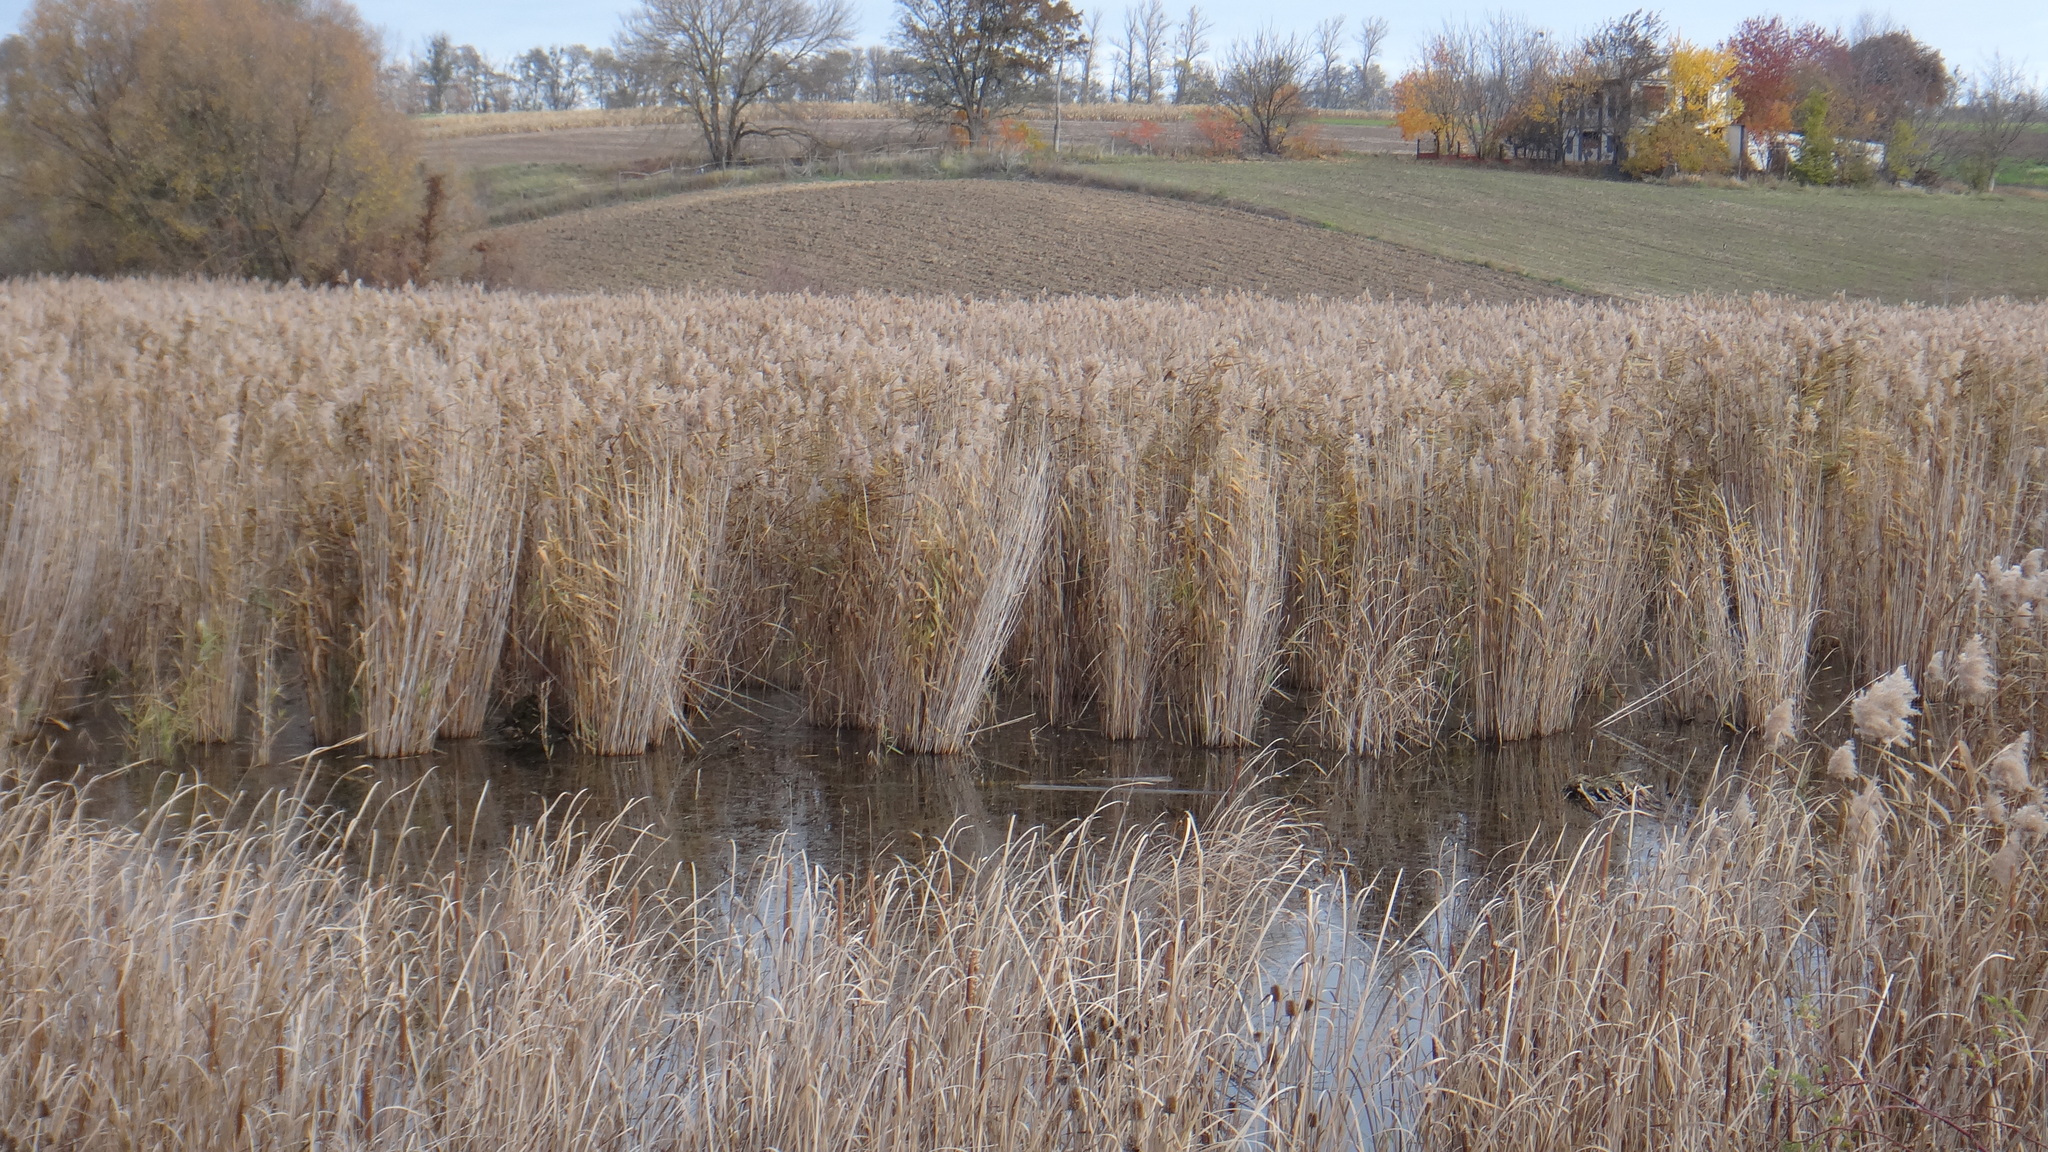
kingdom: Plantae
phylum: Tracheophyta
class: Liliopsida
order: Poales
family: Poaceae
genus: Phragmites
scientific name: Phragmites australis
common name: Common reed
